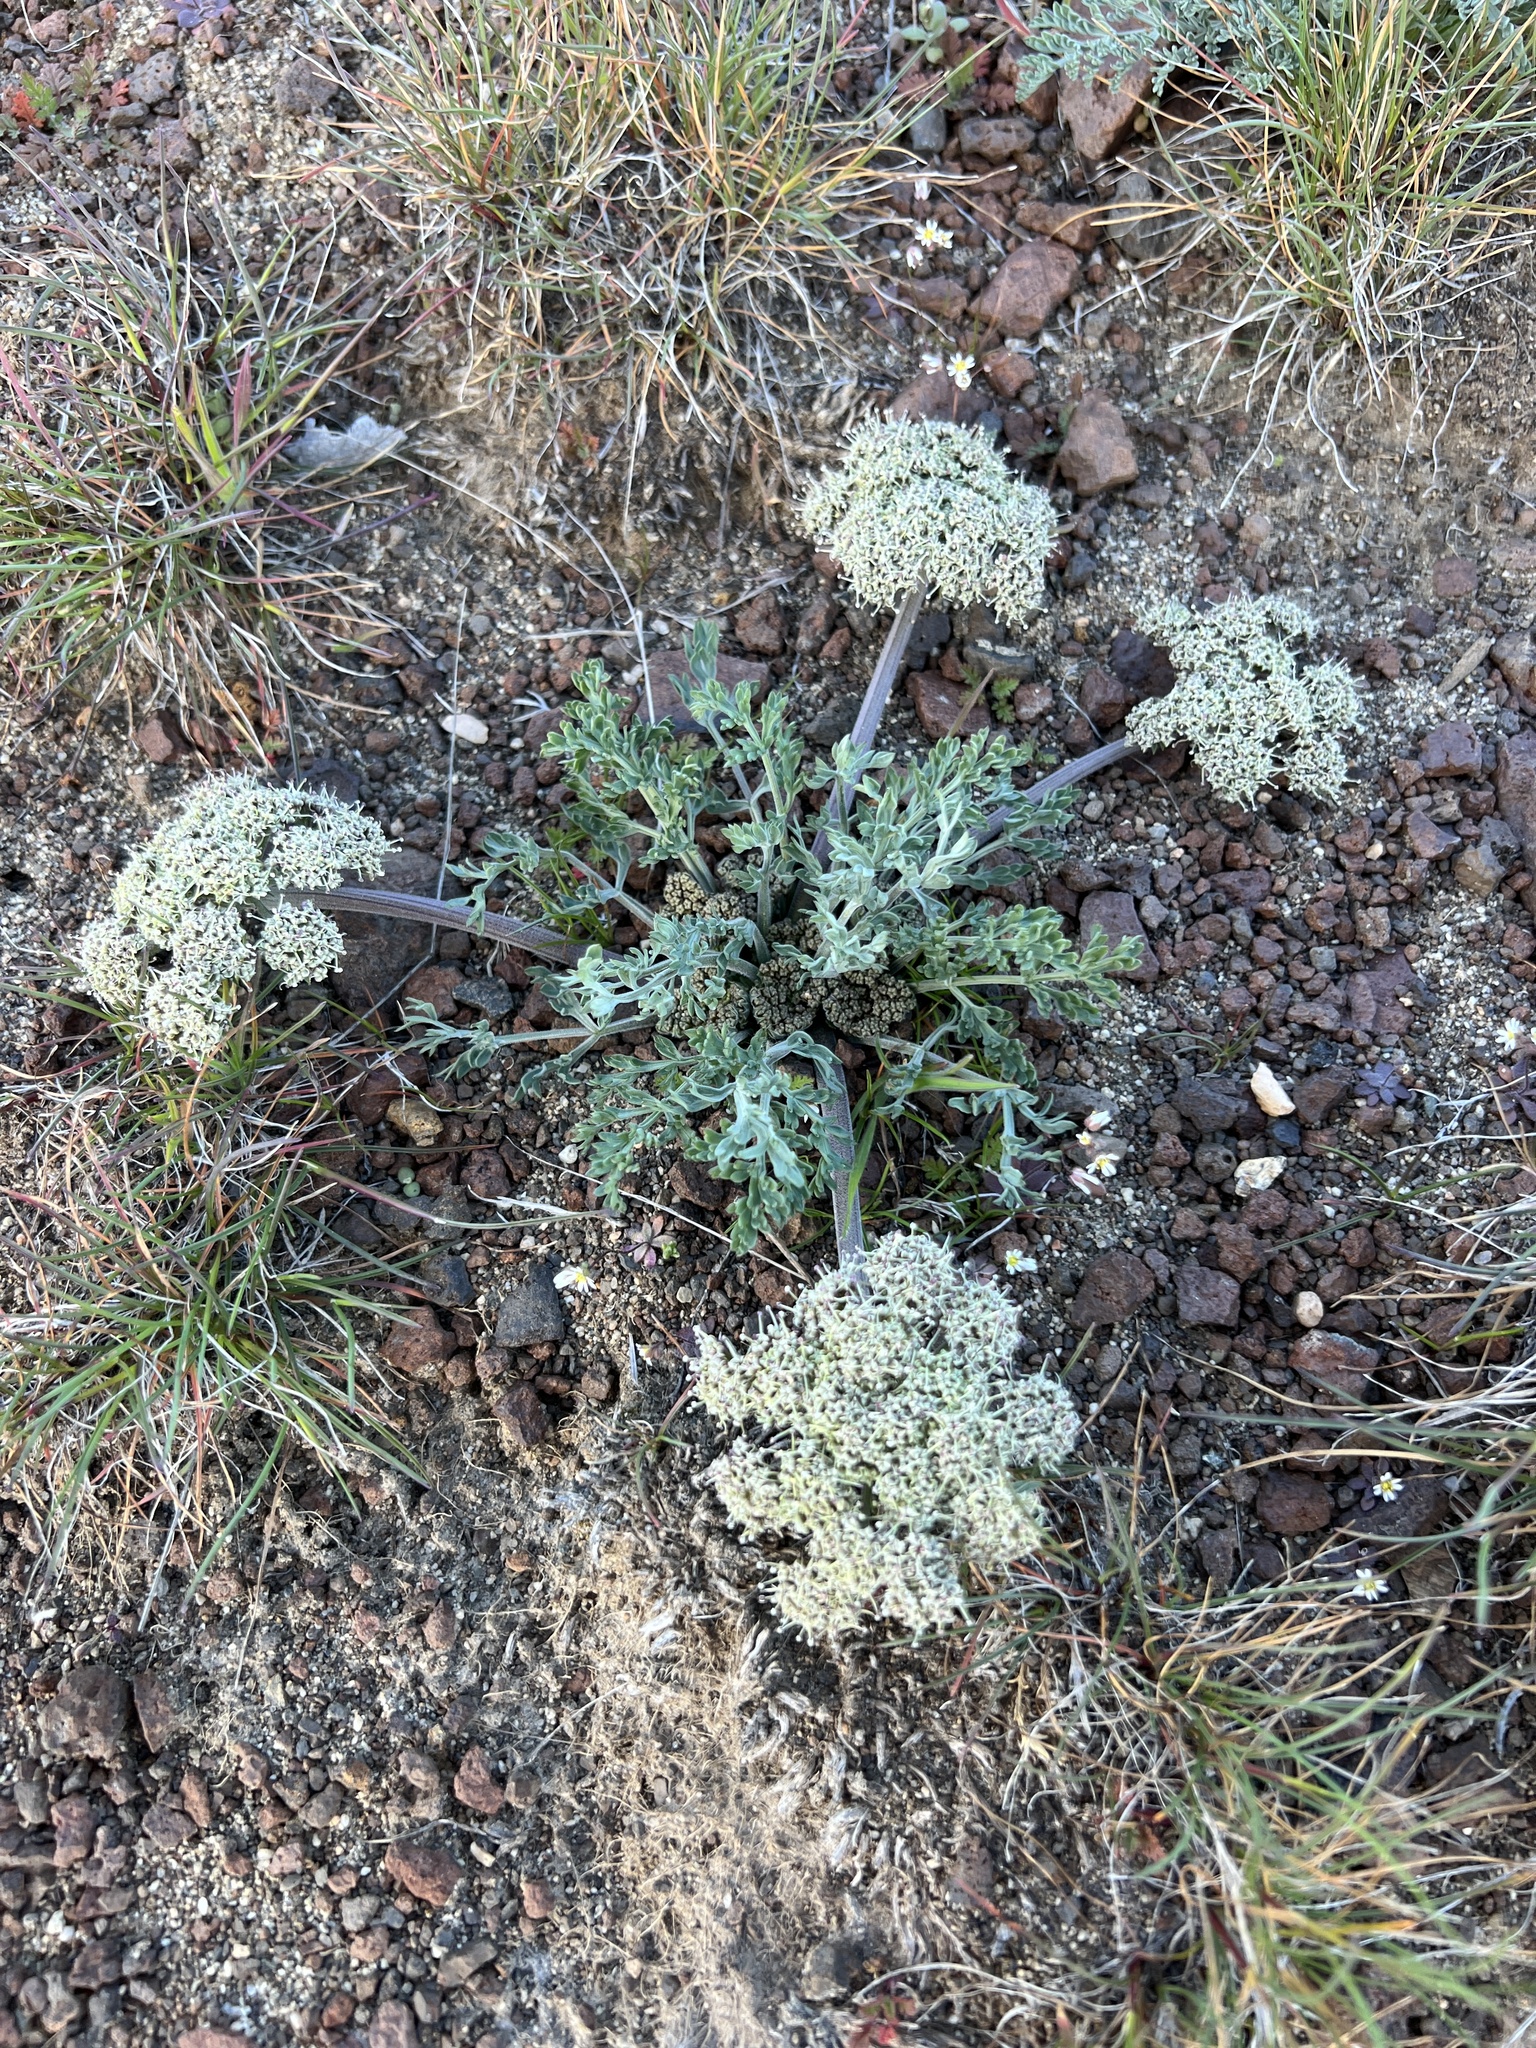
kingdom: Plantae
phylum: Tracheophyta
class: Magnoliopsida
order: Apiales
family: Apiaceae
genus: Lomatium
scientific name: Lomatium macrocarpum
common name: Big-seed biscuitroot
